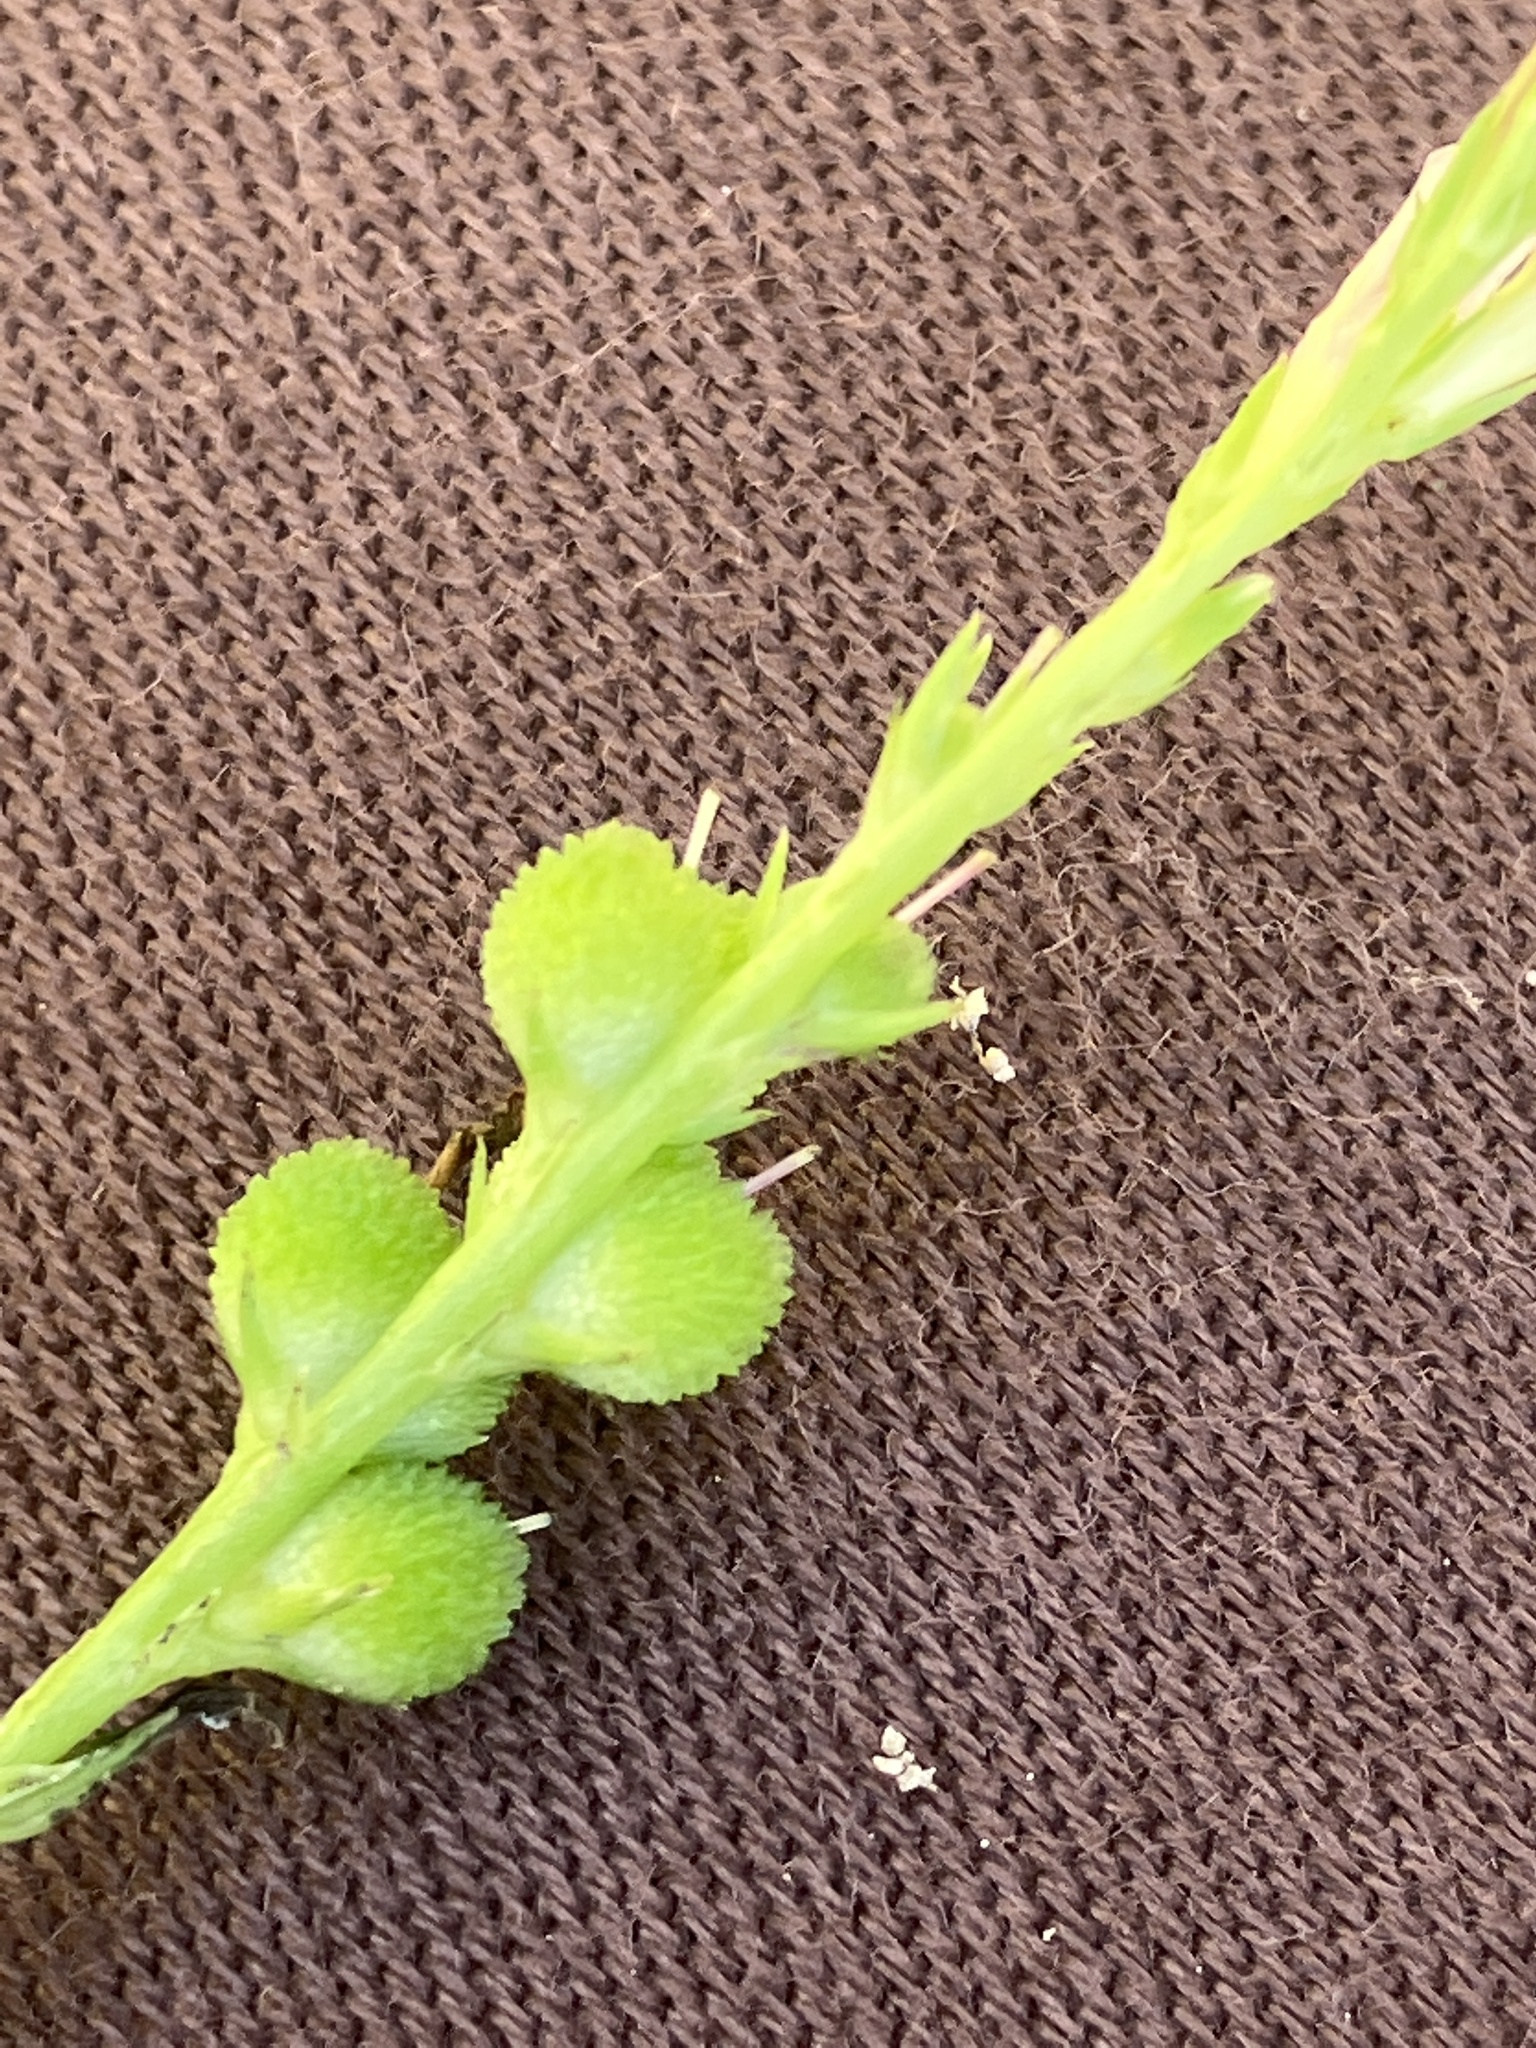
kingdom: Plantae
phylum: Tracheophyta
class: Magnoliopsida
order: Gentianales
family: Loganiaceae
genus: Spigelia
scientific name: Spigelia anthelmia
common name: West indian-pink
